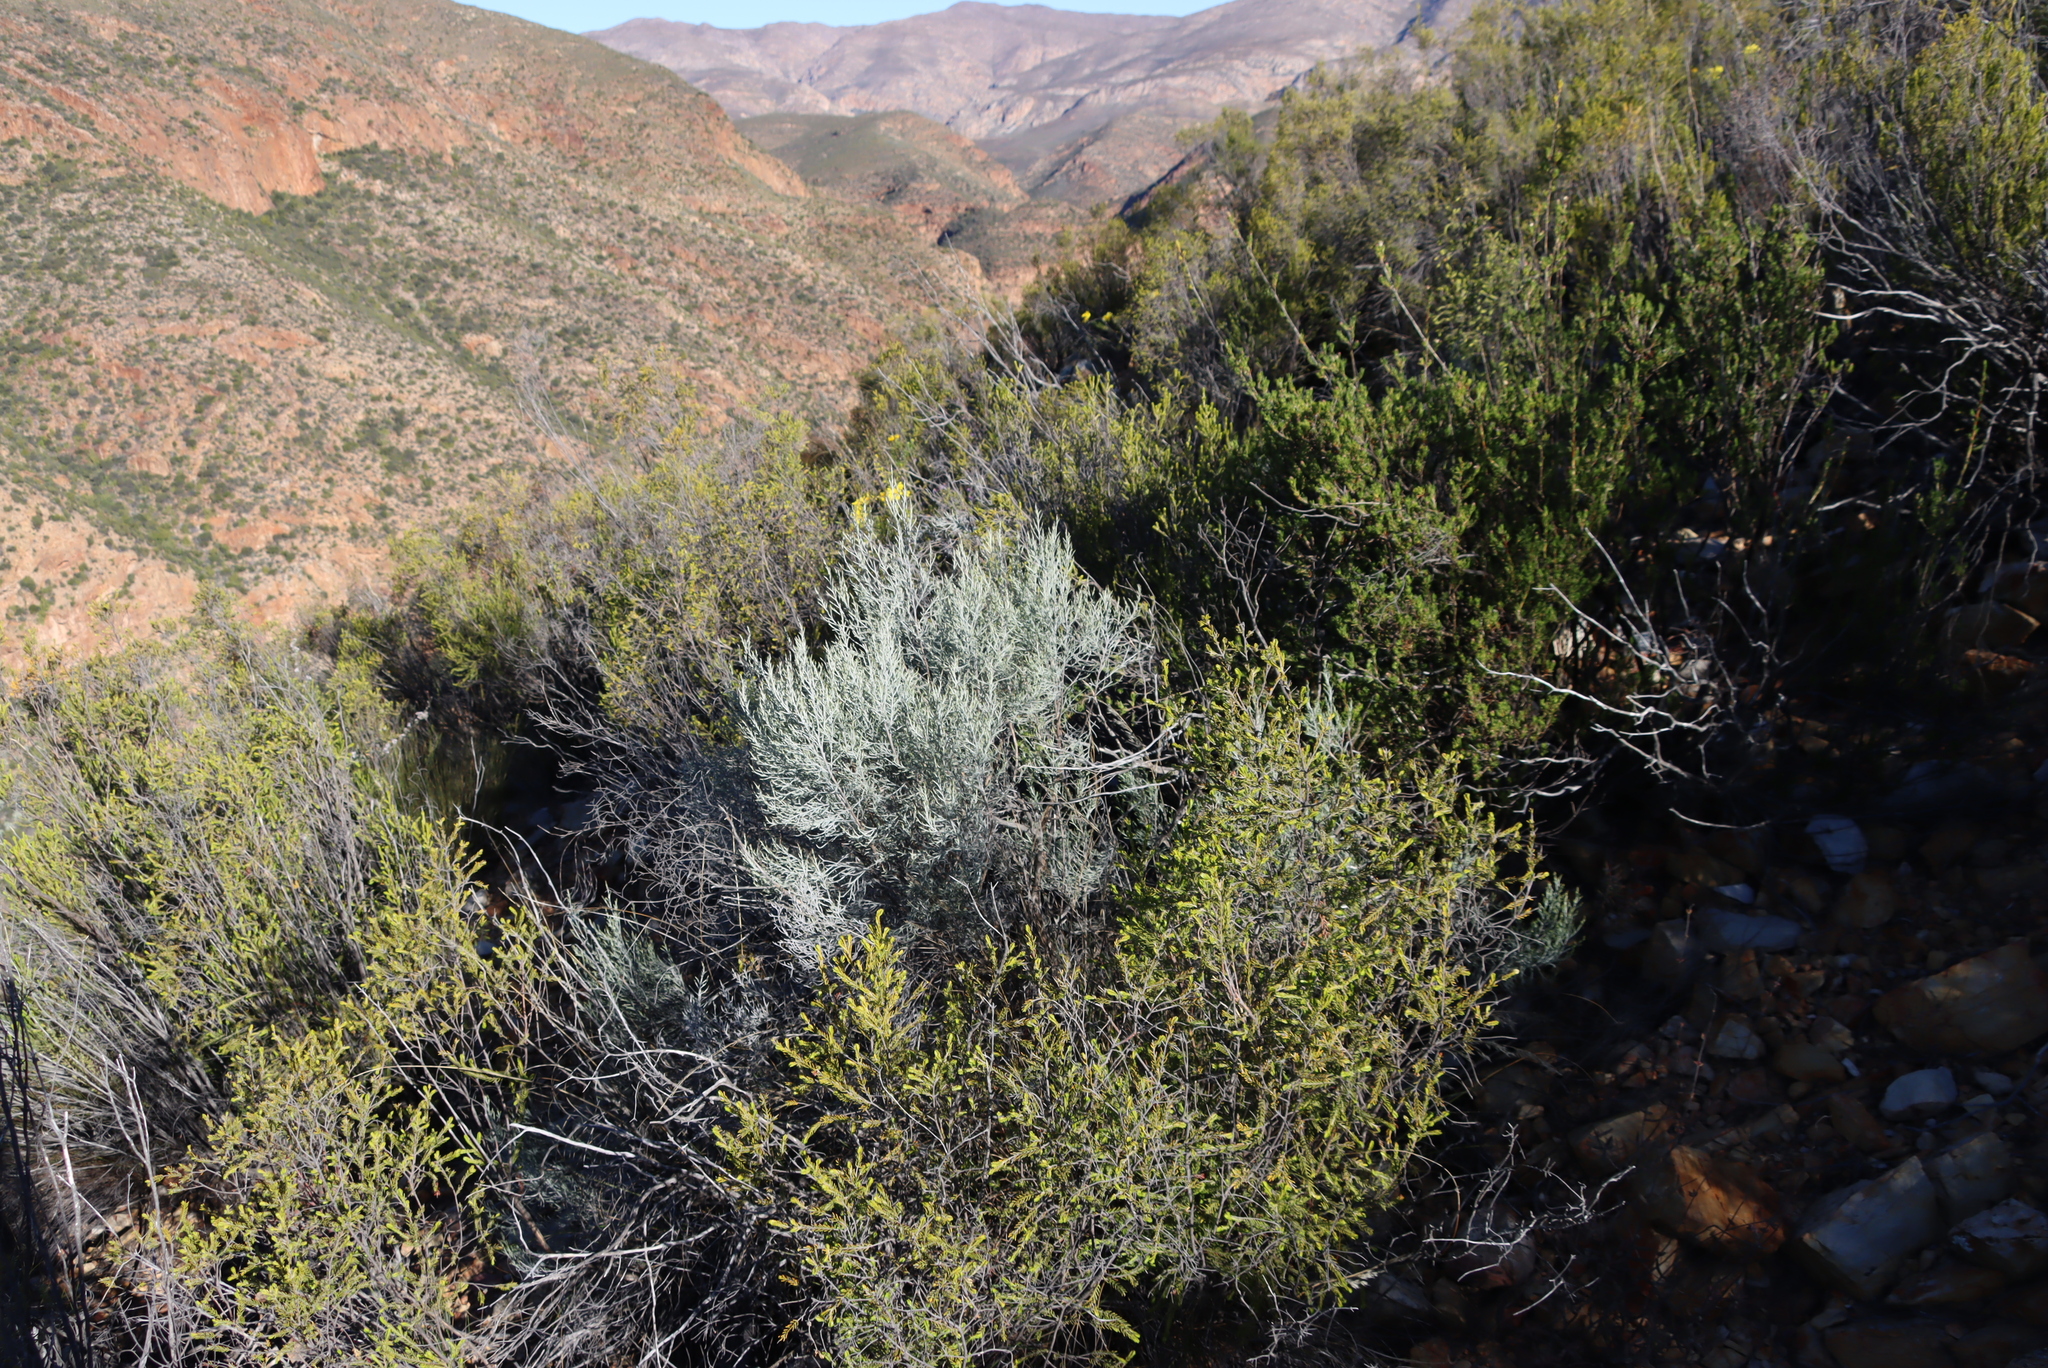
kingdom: Plantae
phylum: Tracheophyta
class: Magnoliopsida
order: Asterales
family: Asteraceae
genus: Dicerothamnus
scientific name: Dicerothamnus rhinocerotis
